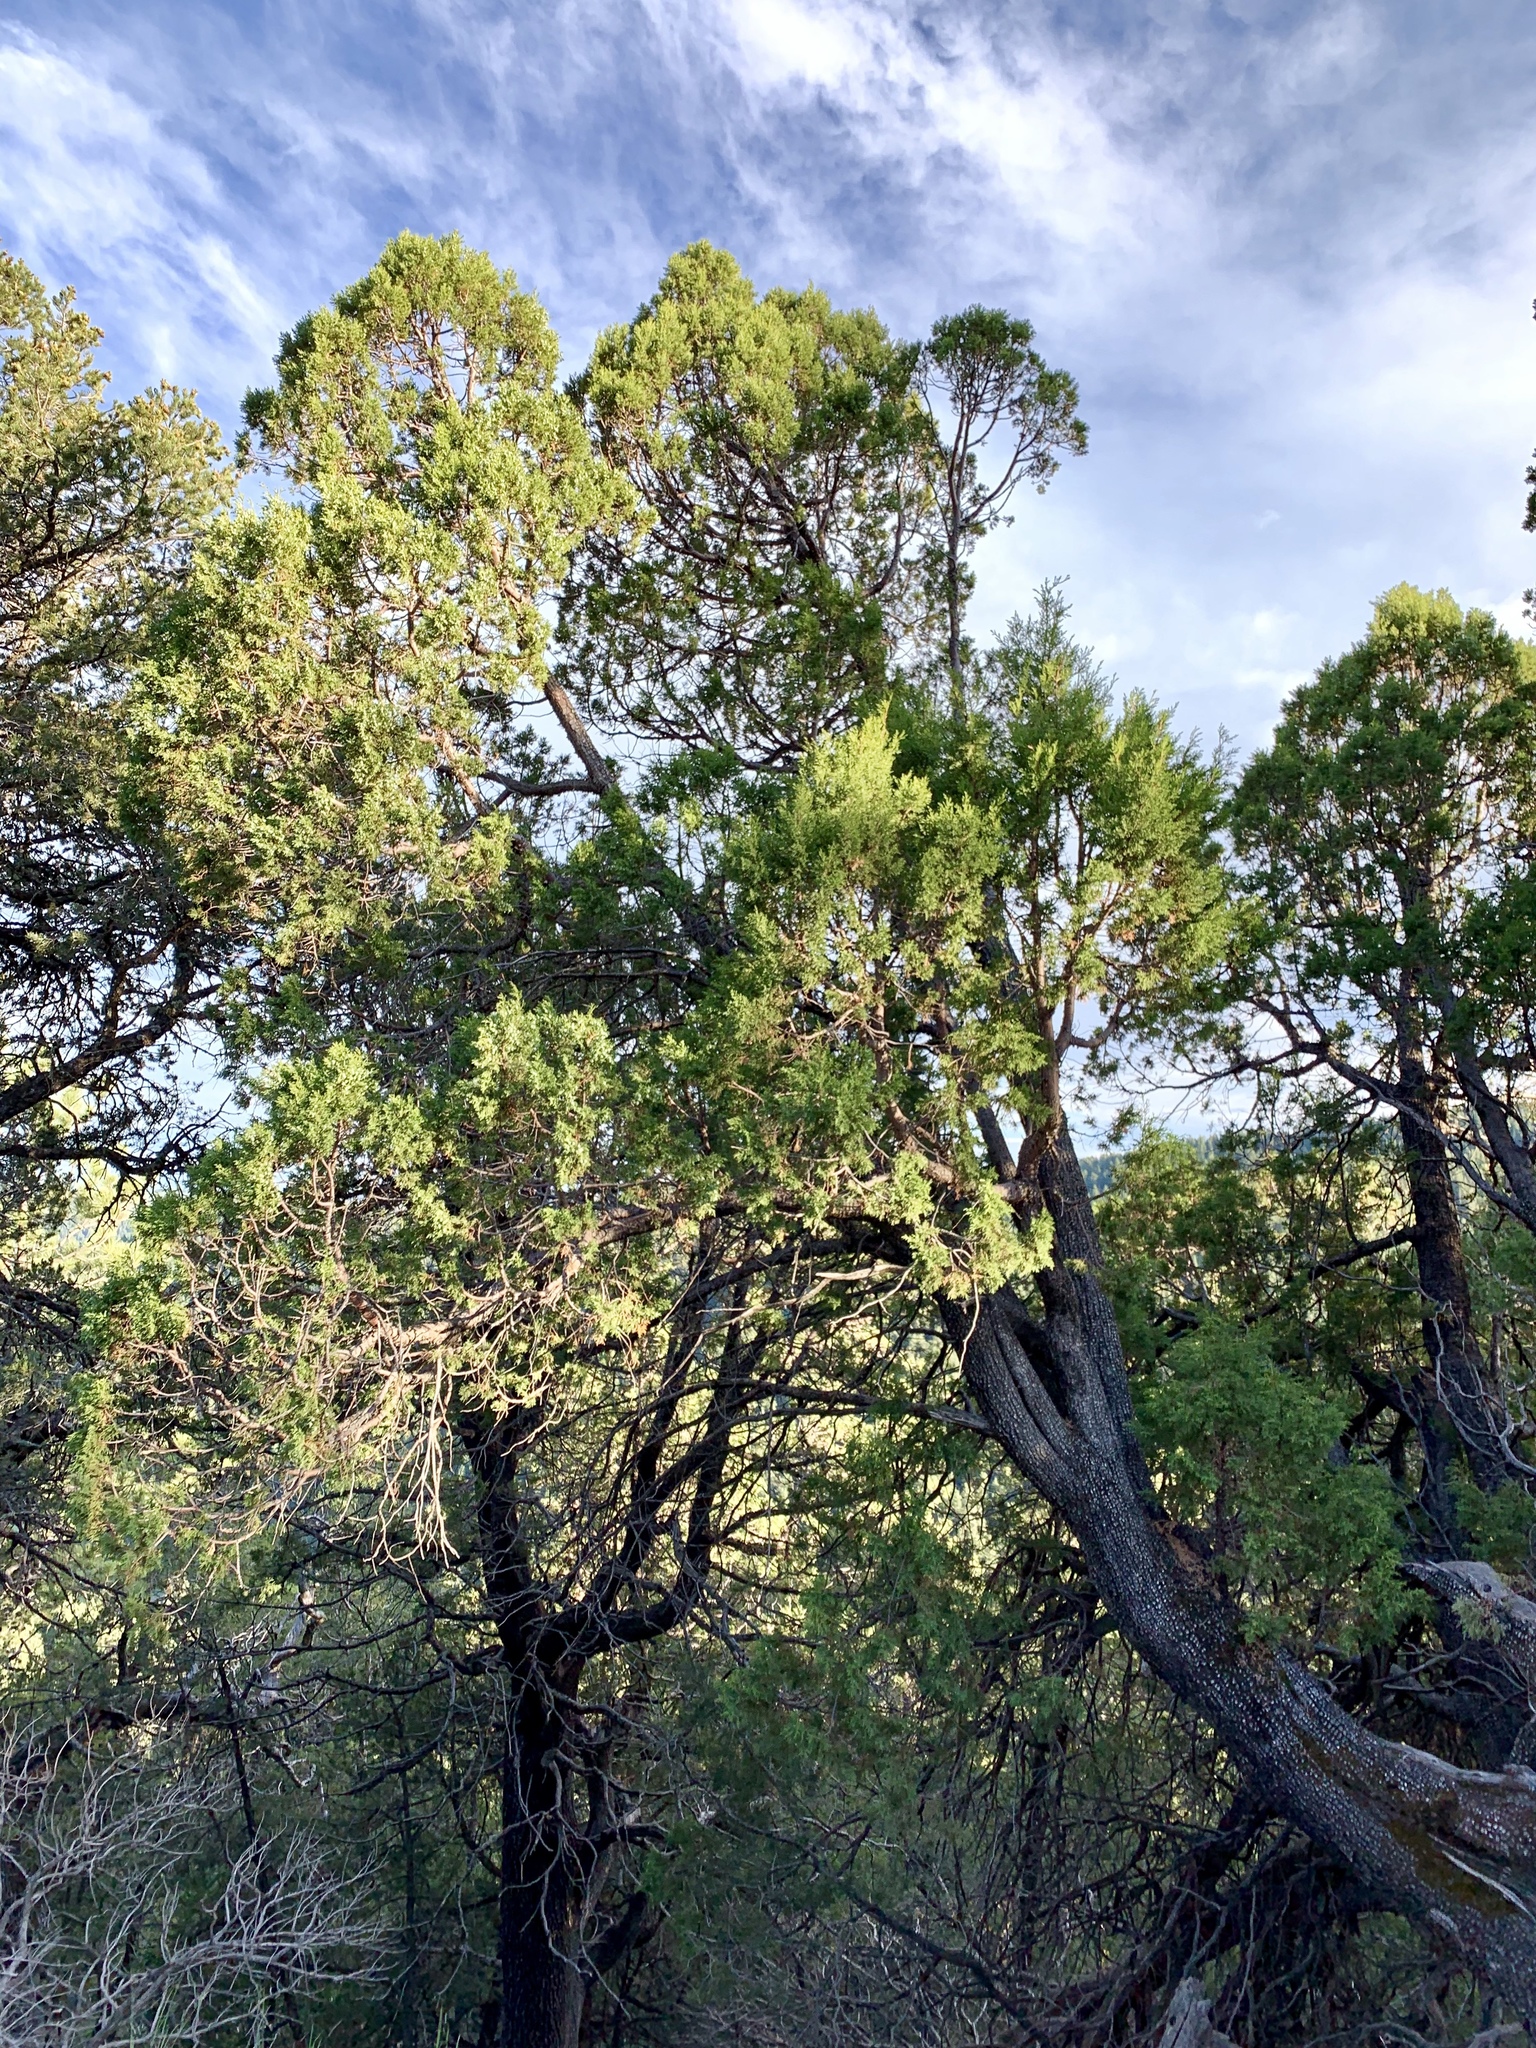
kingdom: Plantae
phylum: Tracheophyta
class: Pinopsida
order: Pinales
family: Cupressaceae
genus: Juniperus
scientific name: Juniperus deppeana
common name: Alligator juniper
